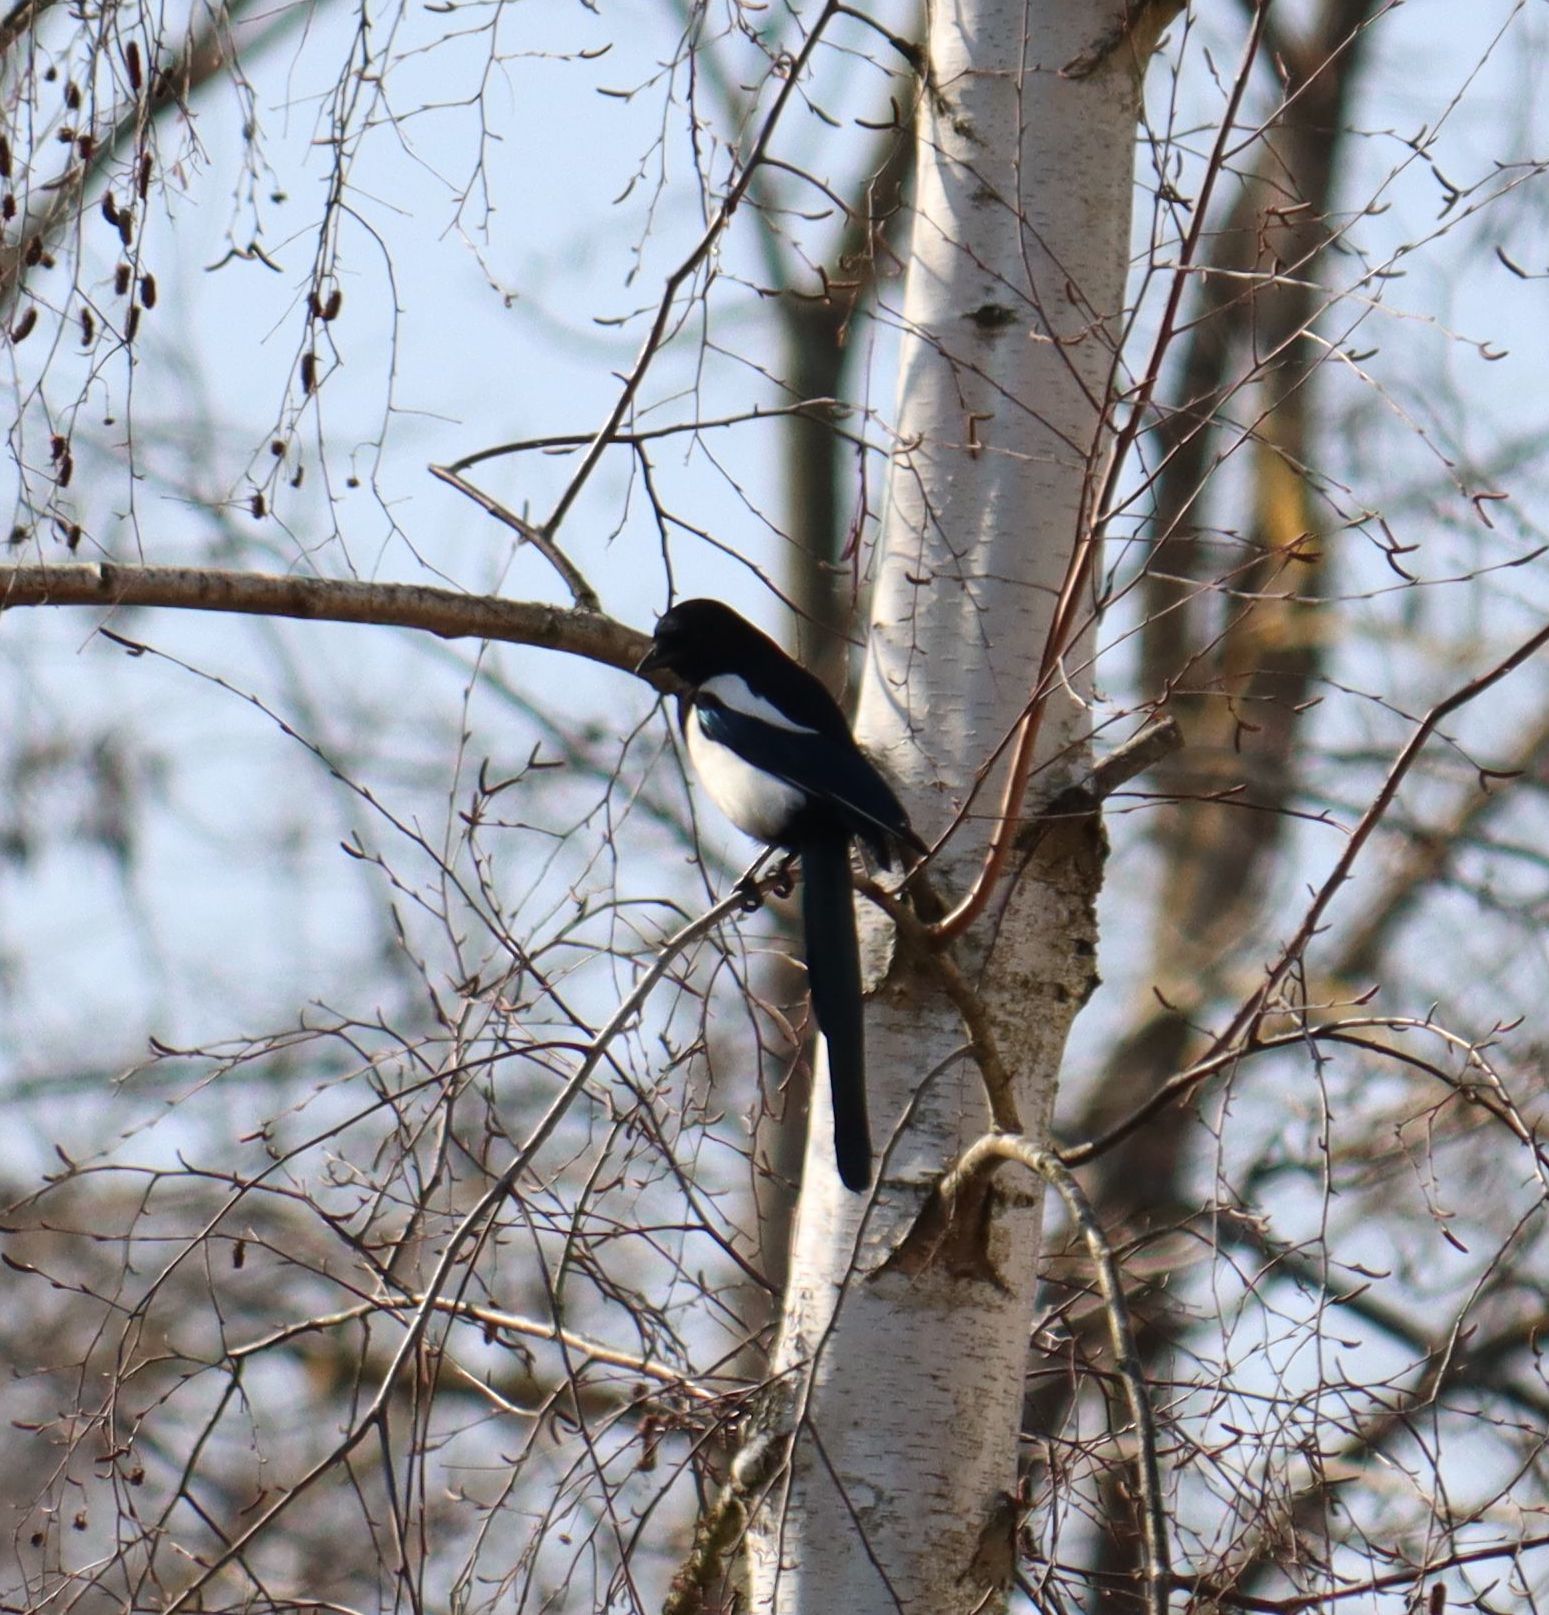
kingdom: Animalia
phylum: Chordata
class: Aves
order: Passeriformes
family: Corvidae
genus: Pica
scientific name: Pica pica
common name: Eurasian magpie
